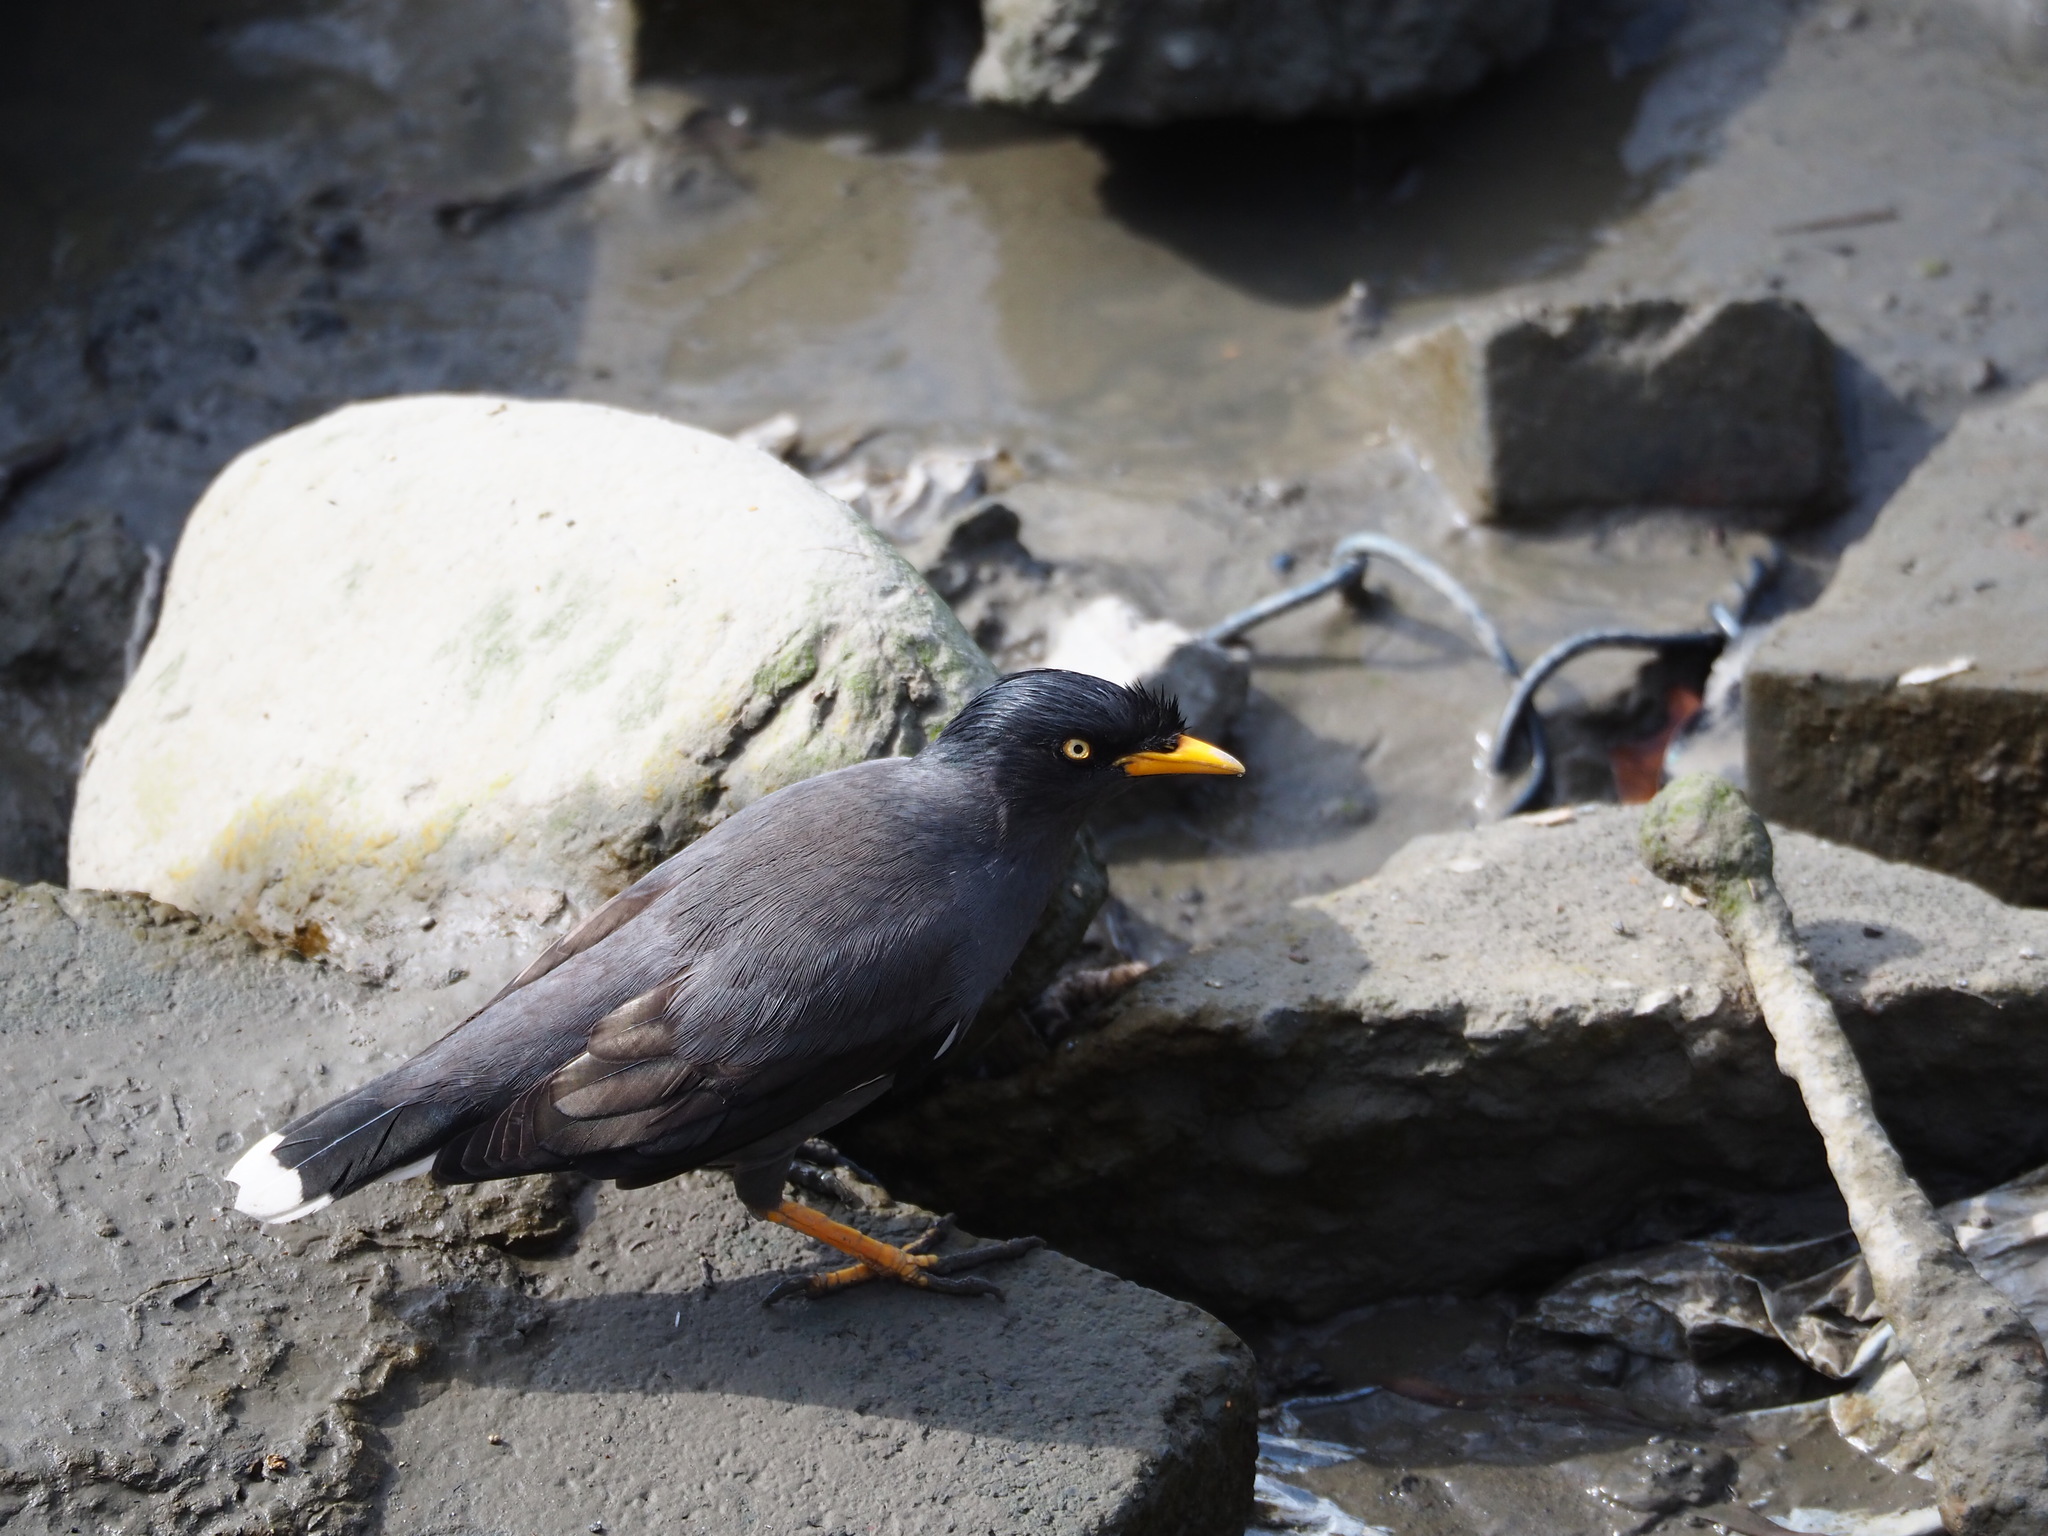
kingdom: Animalia
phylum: Chordata
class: Aves
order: Passeriformes
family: Sturnidae
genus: Acridotheres
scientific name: Acridotheres javanicus
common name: Javan myna
